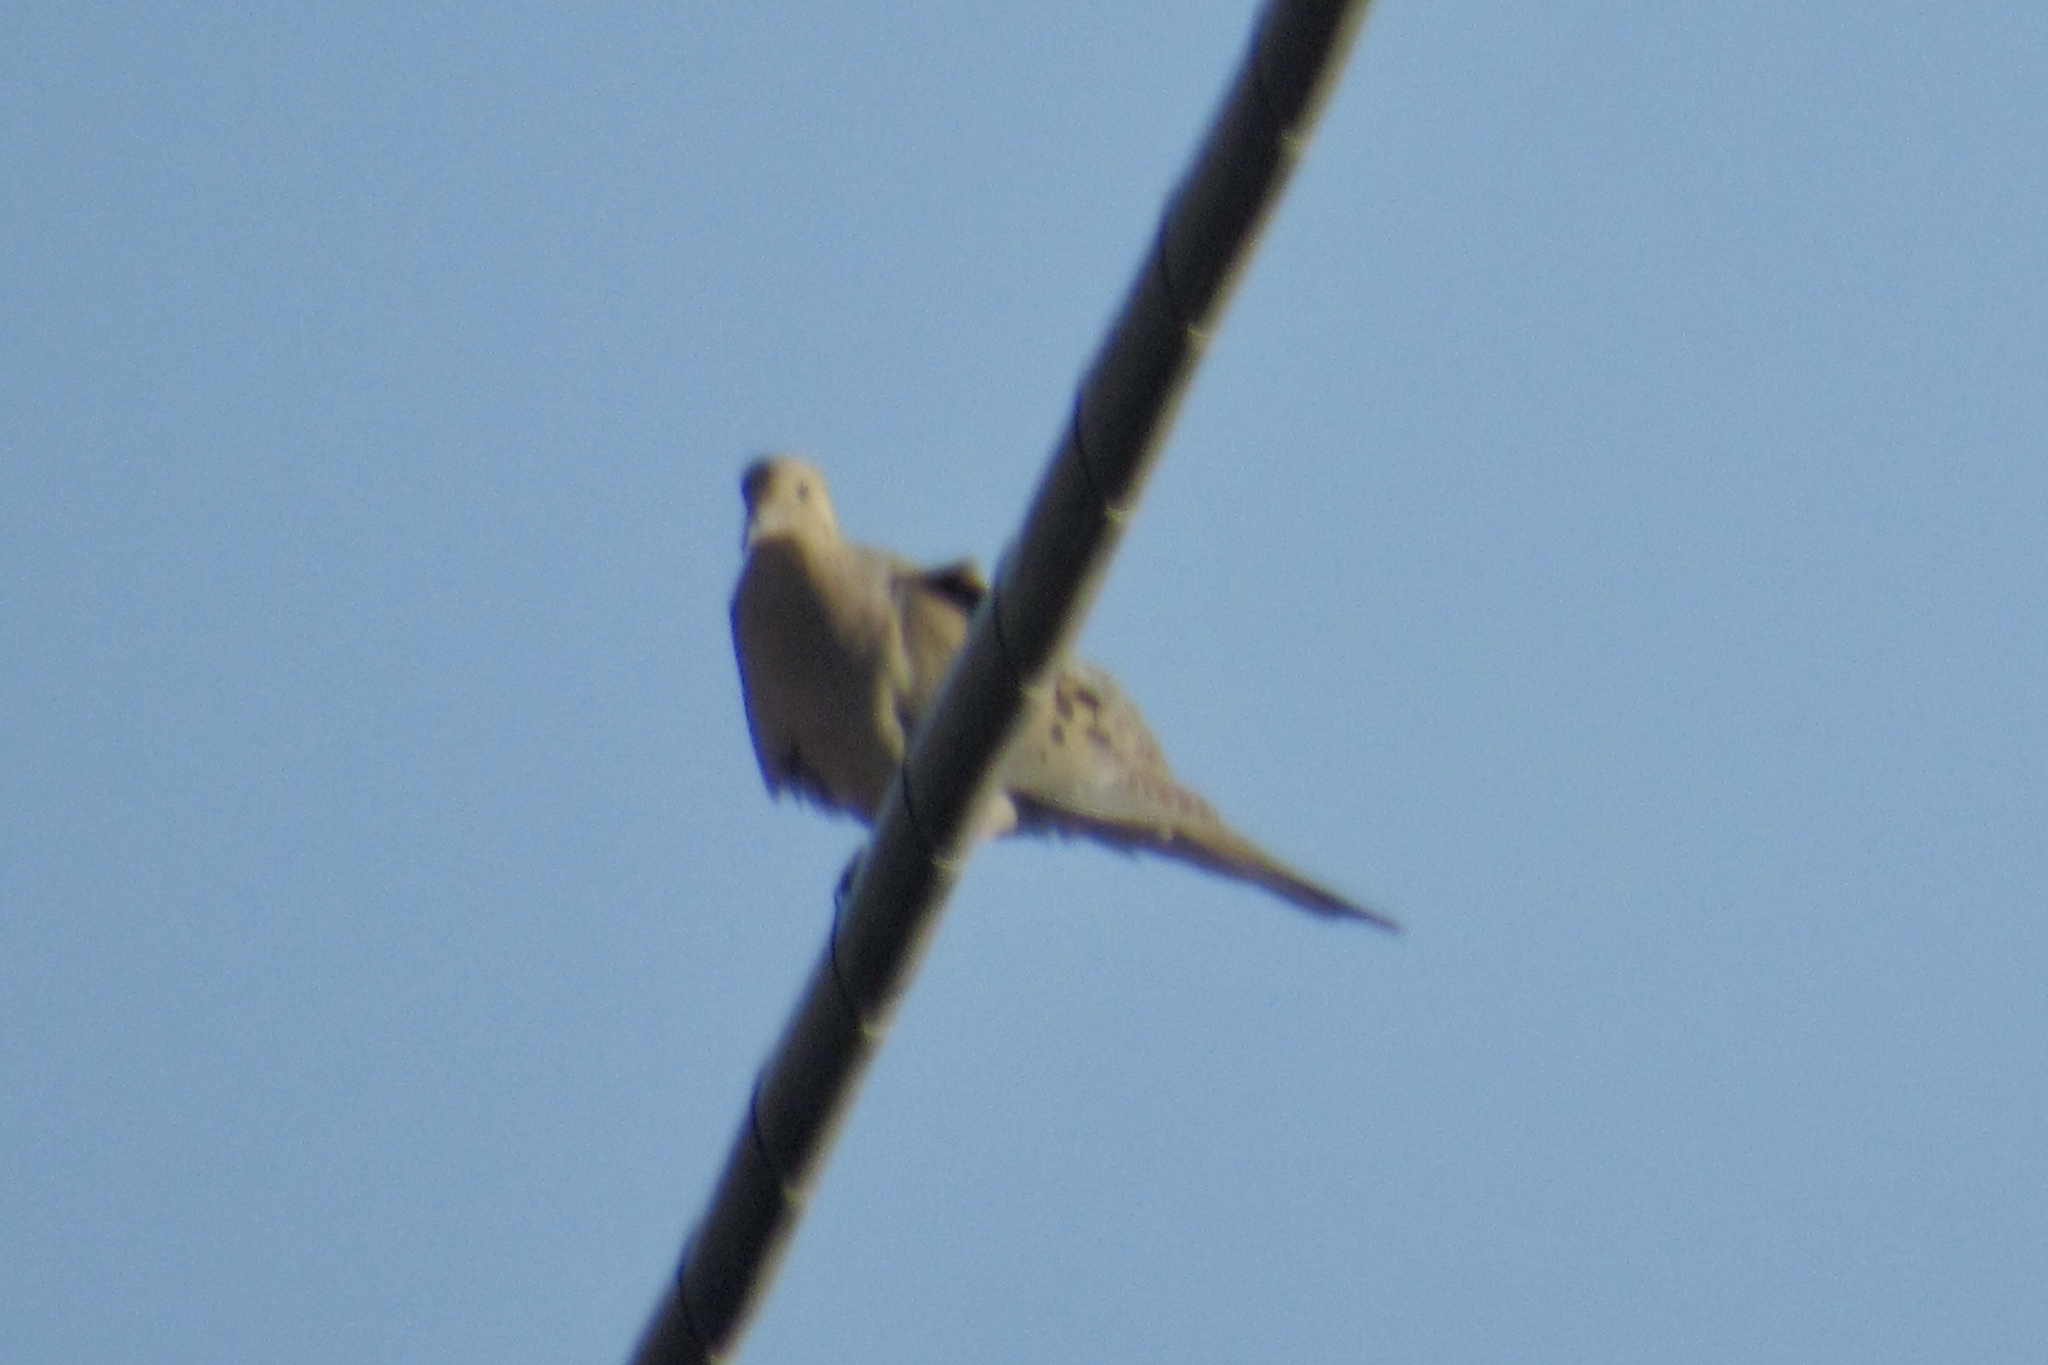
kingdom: Animalia
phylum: Chordata
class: Aves
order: Columbiformes
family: Columbidae
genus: Zenaida
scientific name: Zenaida macroura
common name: Mourning dove
